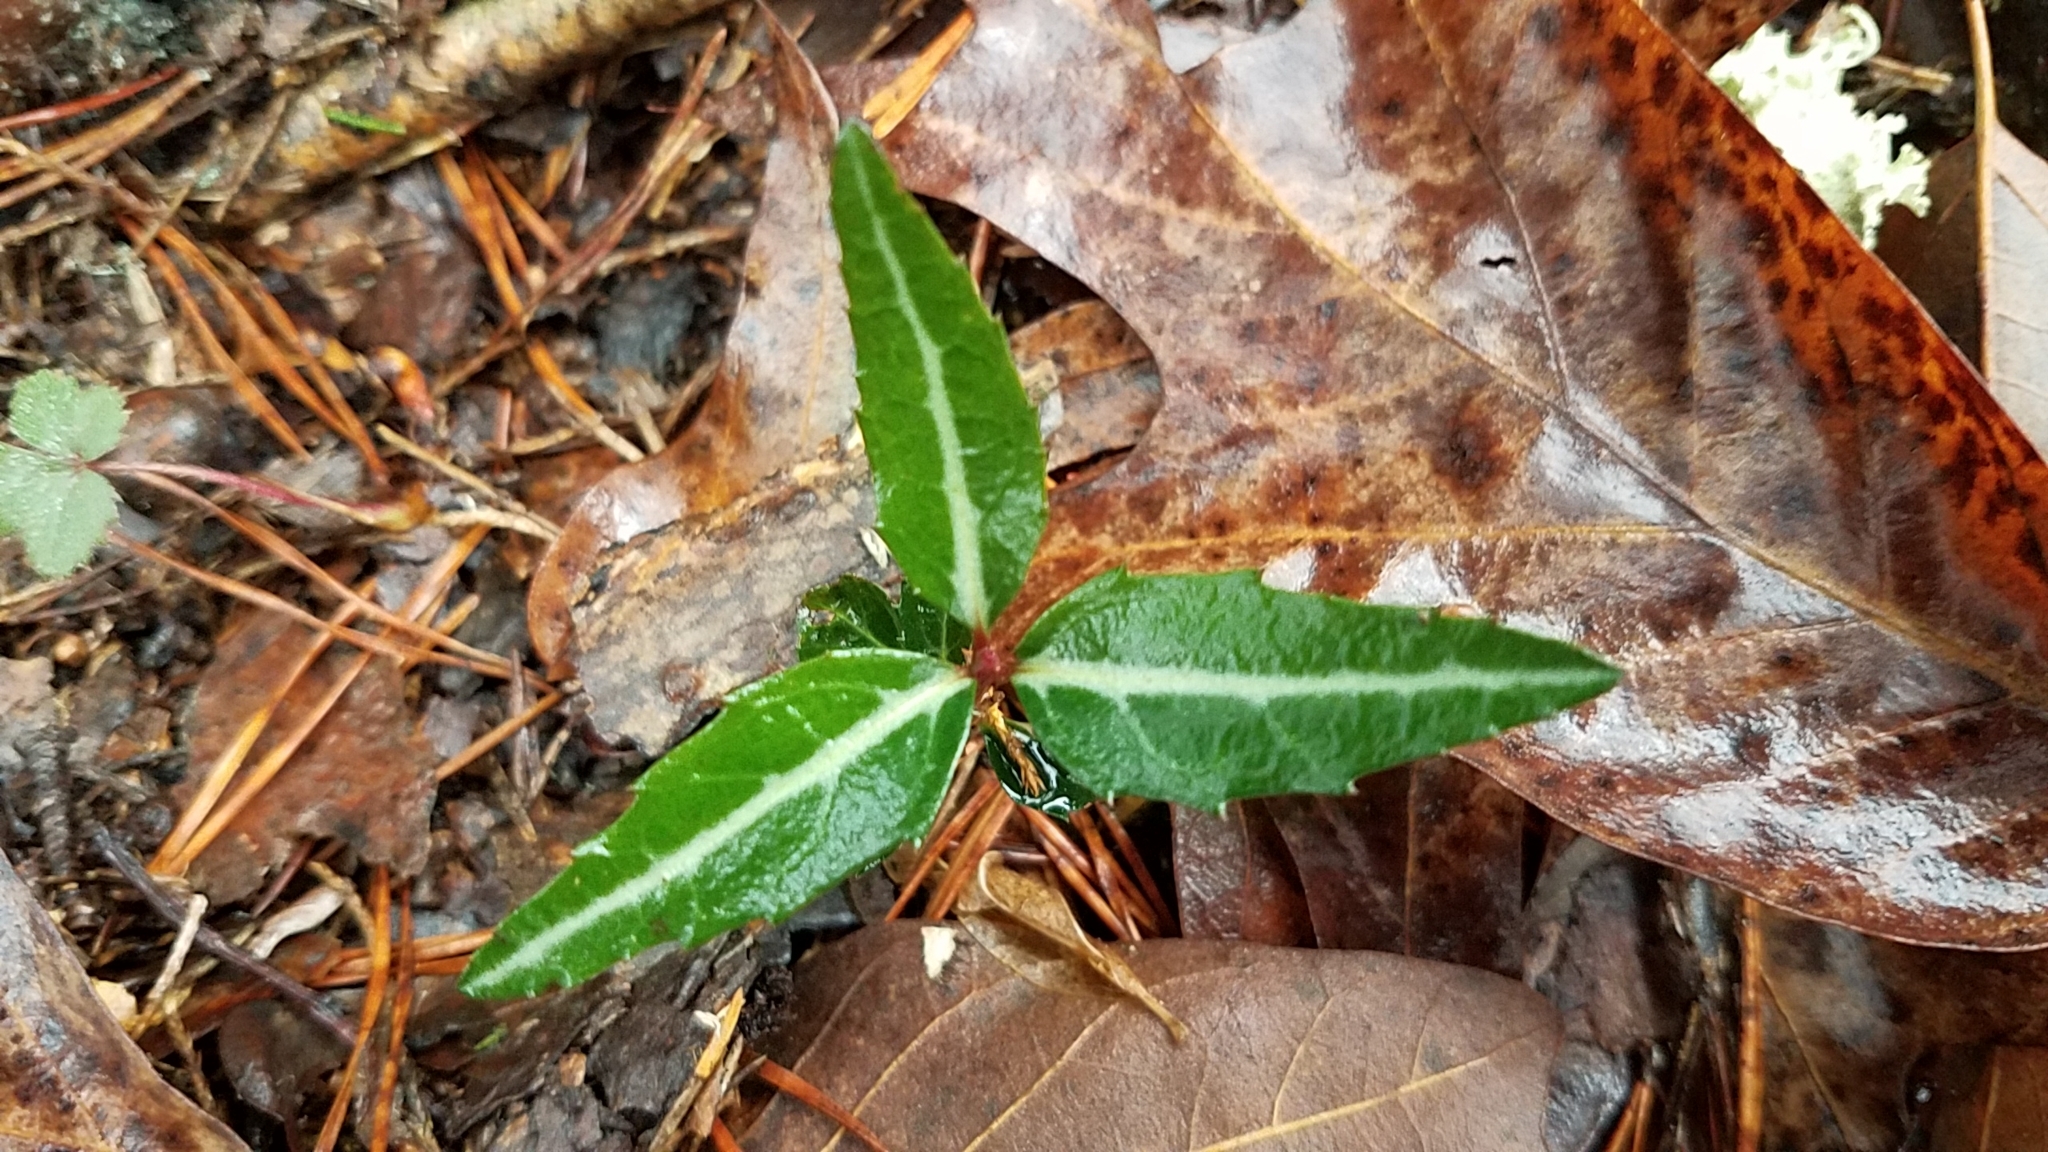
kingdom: Plantae
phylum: Tracheophyta
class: Magnoliopsida
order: Ericales
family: Ericaceae
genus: Chimaphila
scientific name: Chimaphila maculata
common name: Spotted pipsissewa
